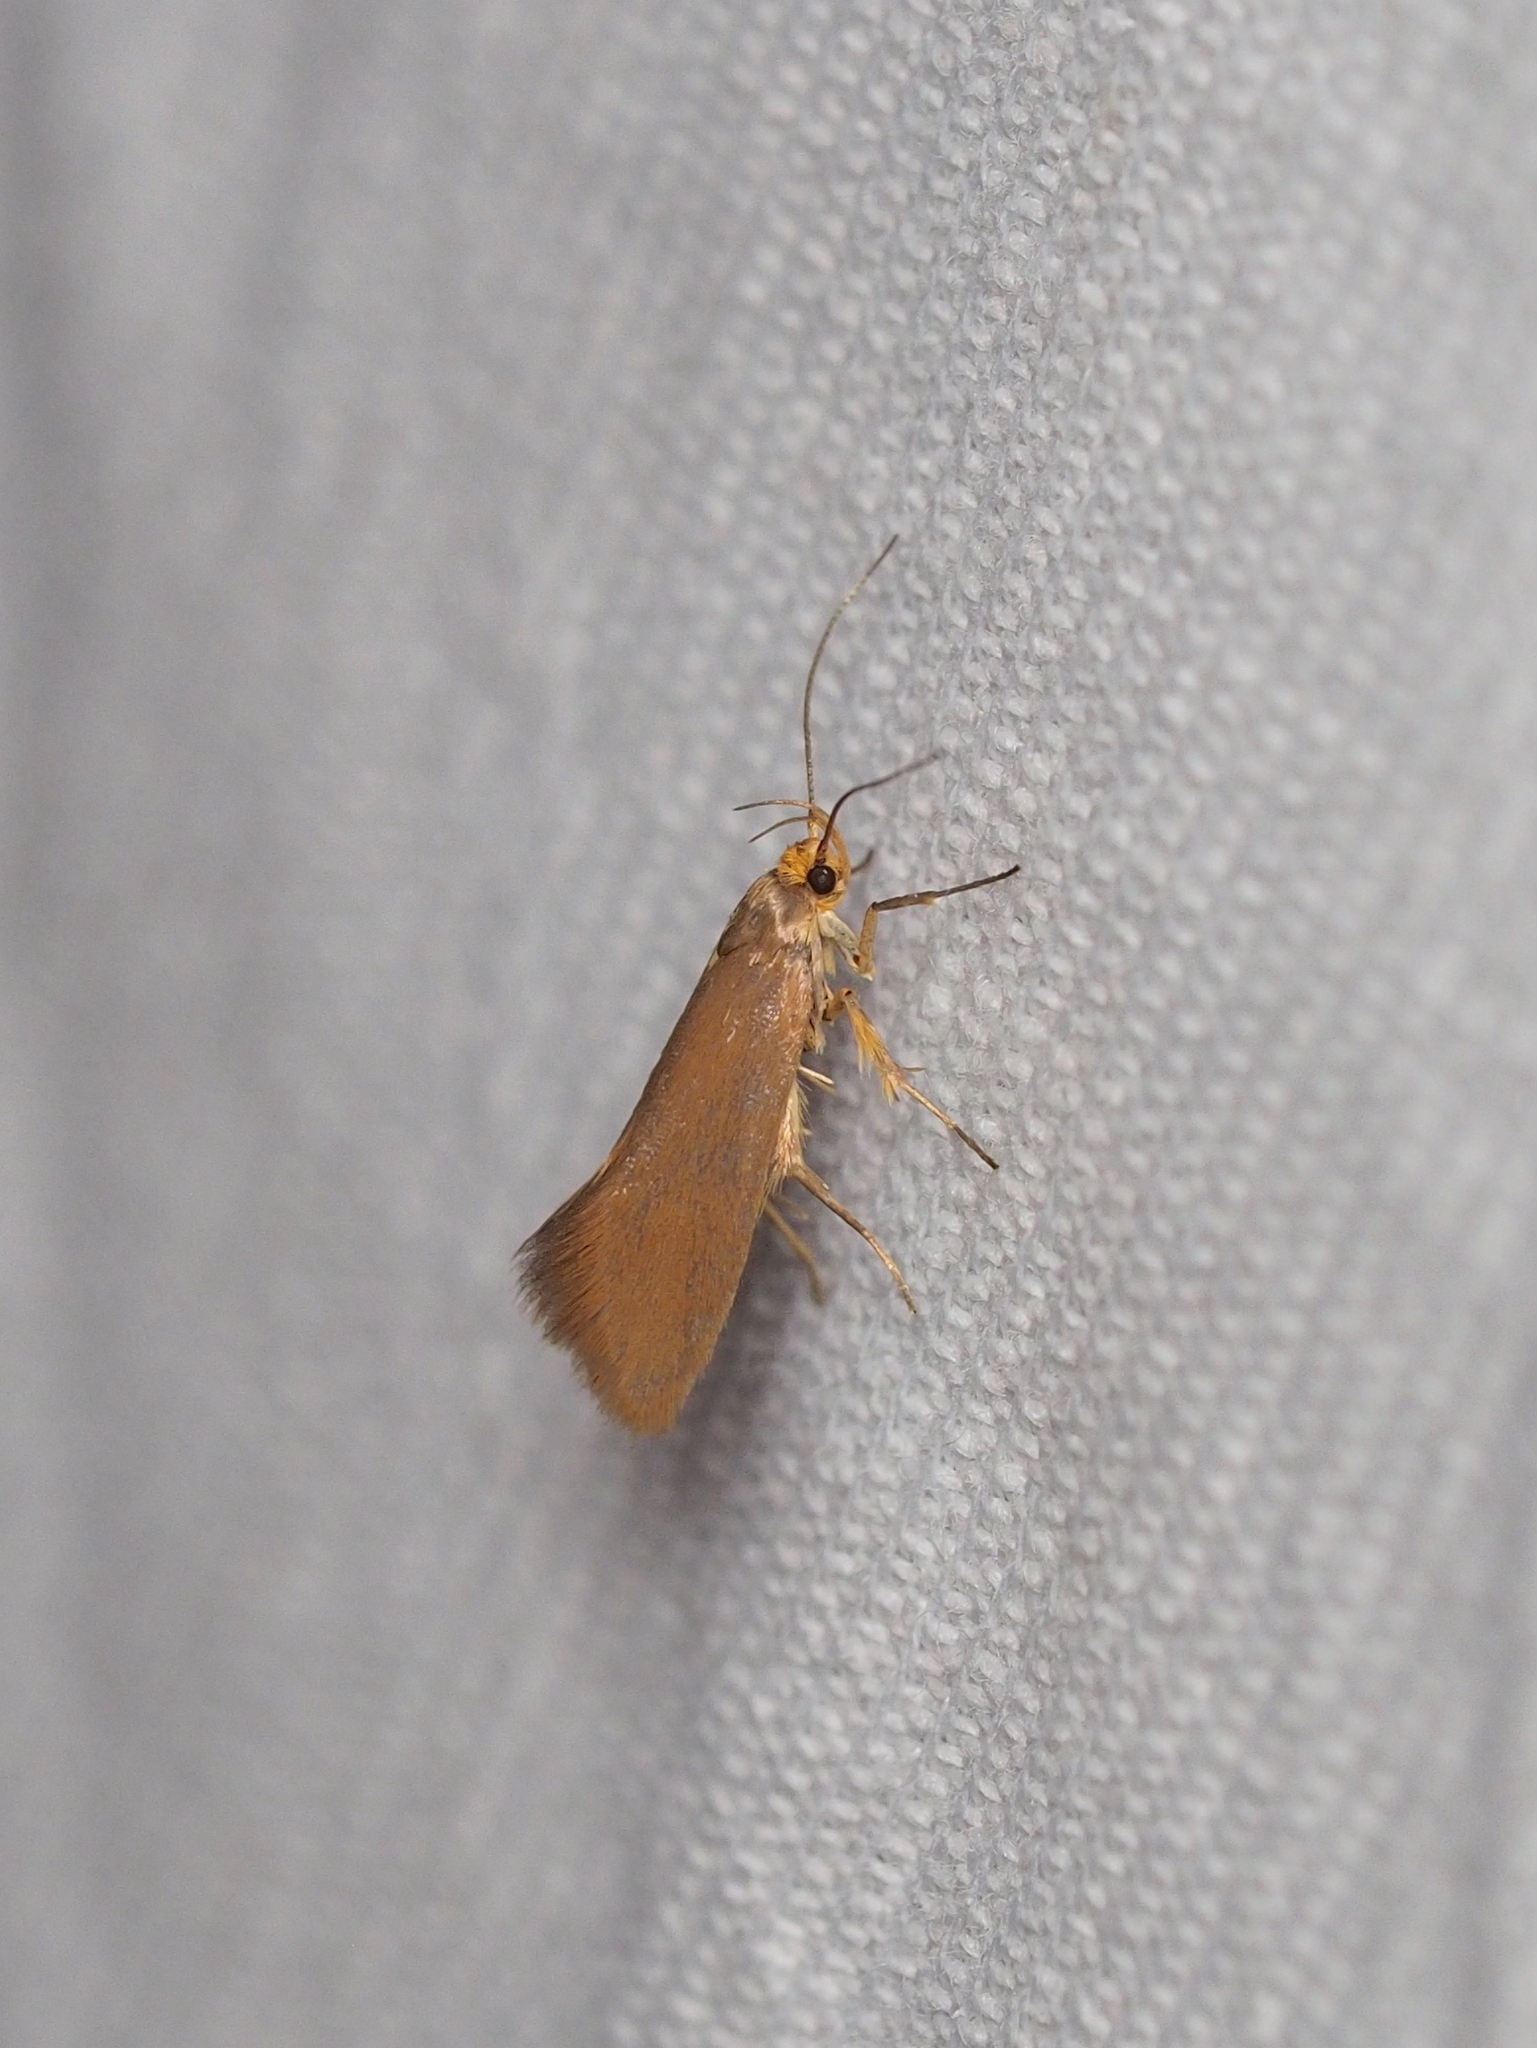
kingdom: Animalia
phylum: Arthropoda
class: Insecta
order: Lepidoptera
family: Oecophoridae
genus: Borkhausenia
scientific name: Borkhausenia Crassa unitella
